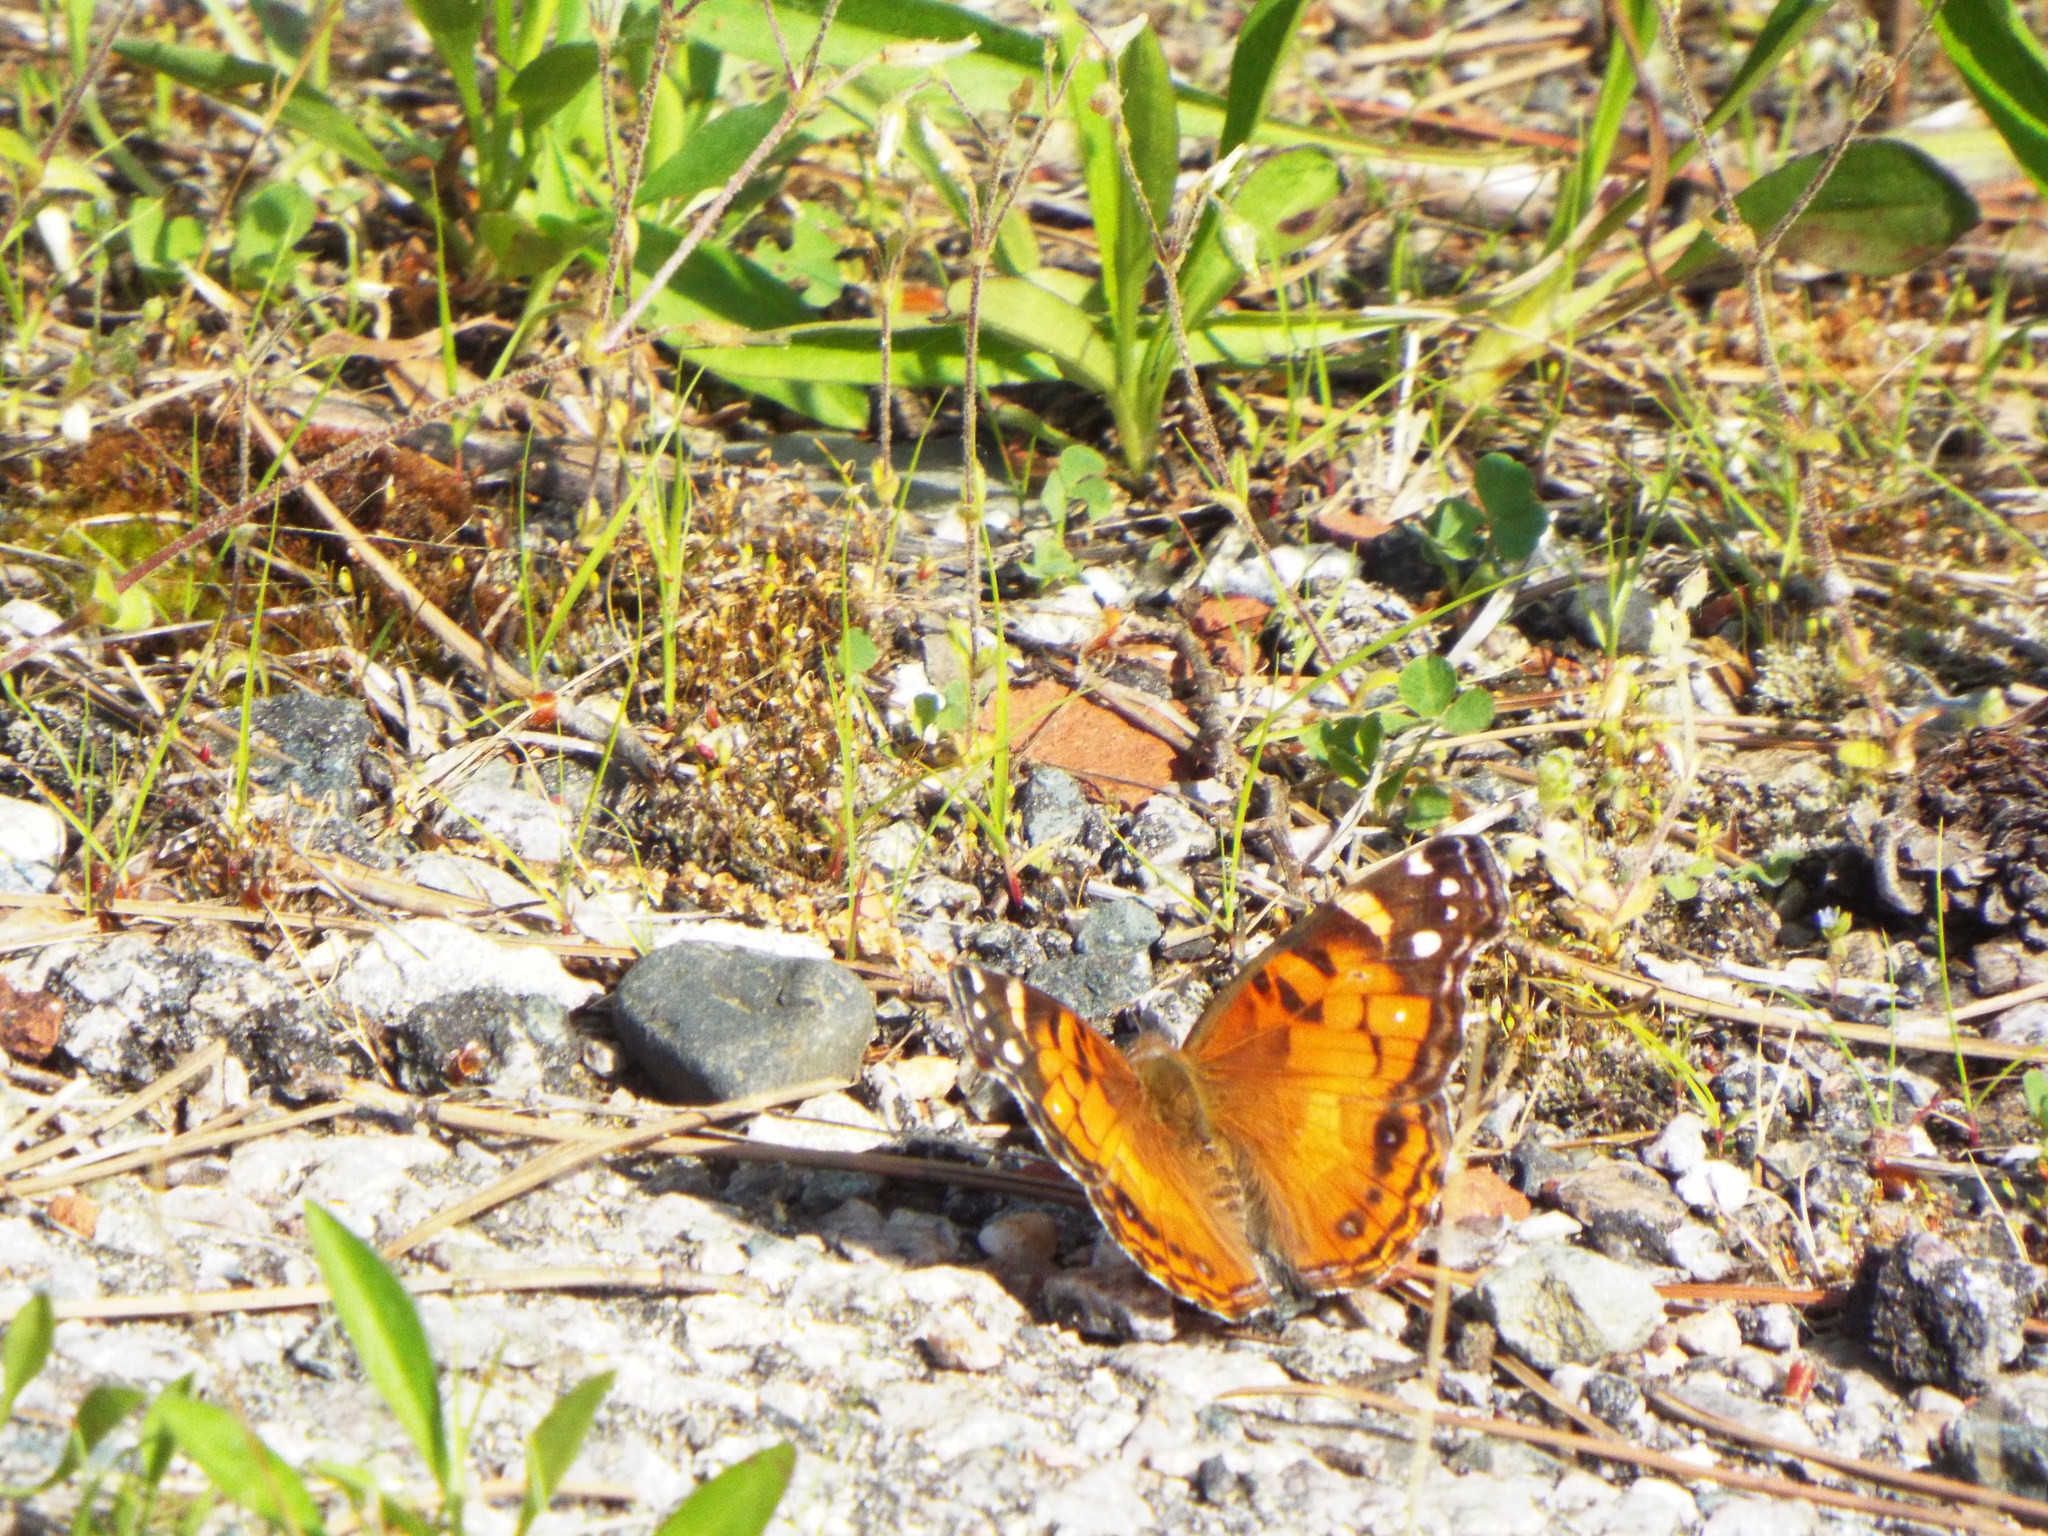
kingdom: Animalia
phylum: Arthropoda
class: Insecta
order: Lepidoptera
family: Nymphalidae
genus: Vanessa
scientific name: Vanessa virginiensis
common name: American lady
